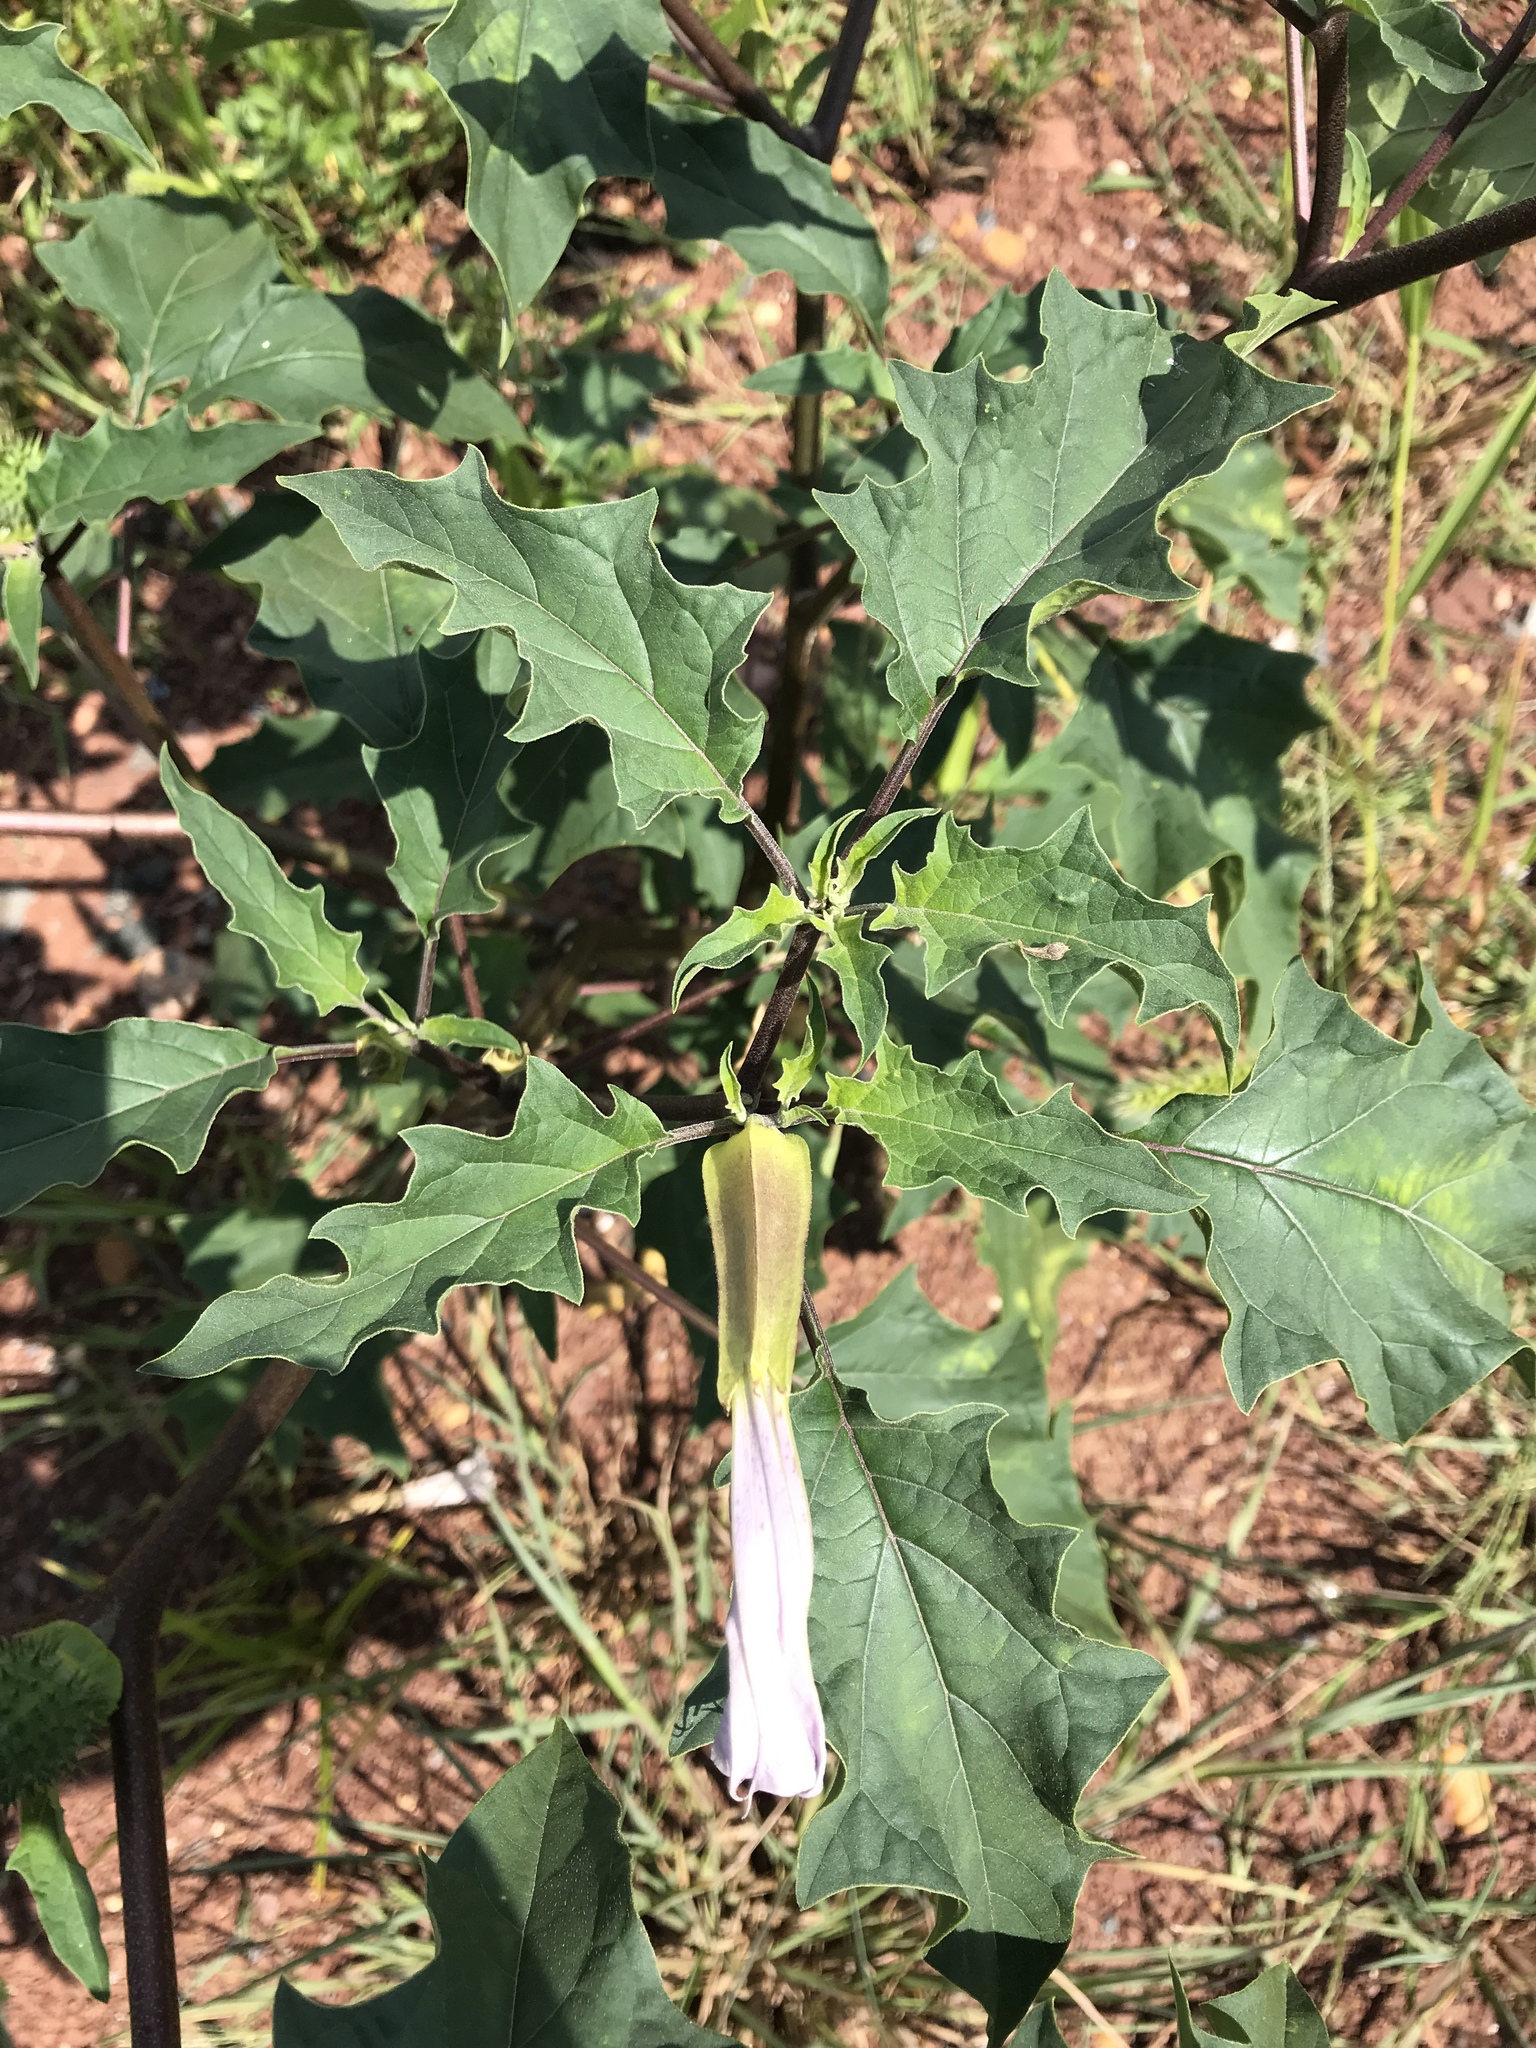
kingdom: Plantae
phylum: Tracheophyta
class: Magnoliopsida
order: Solanales
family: Solanaceae
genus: Datura
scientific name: Datura stramonium
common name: Thorn-apple
